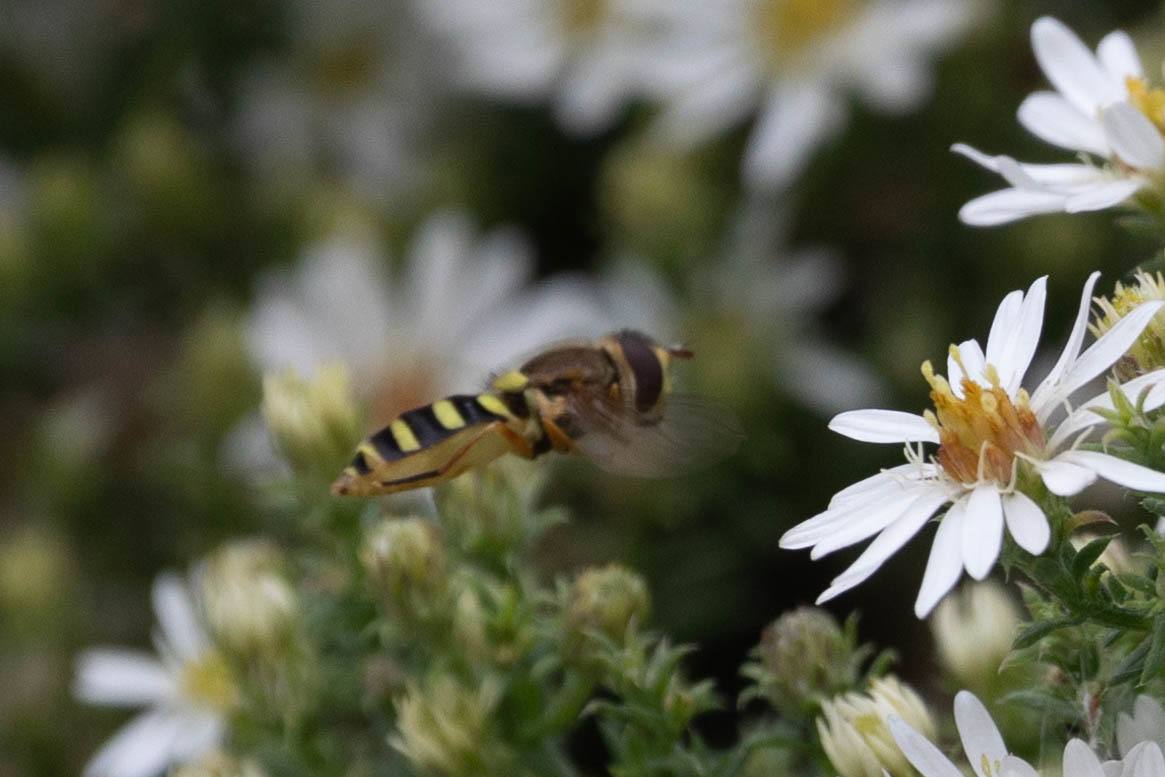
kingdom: Animalia
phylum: Arthropoda
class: Insecta
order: Diptera
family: Syrphidae
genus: Syrphus
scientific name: Syrphus opinator
